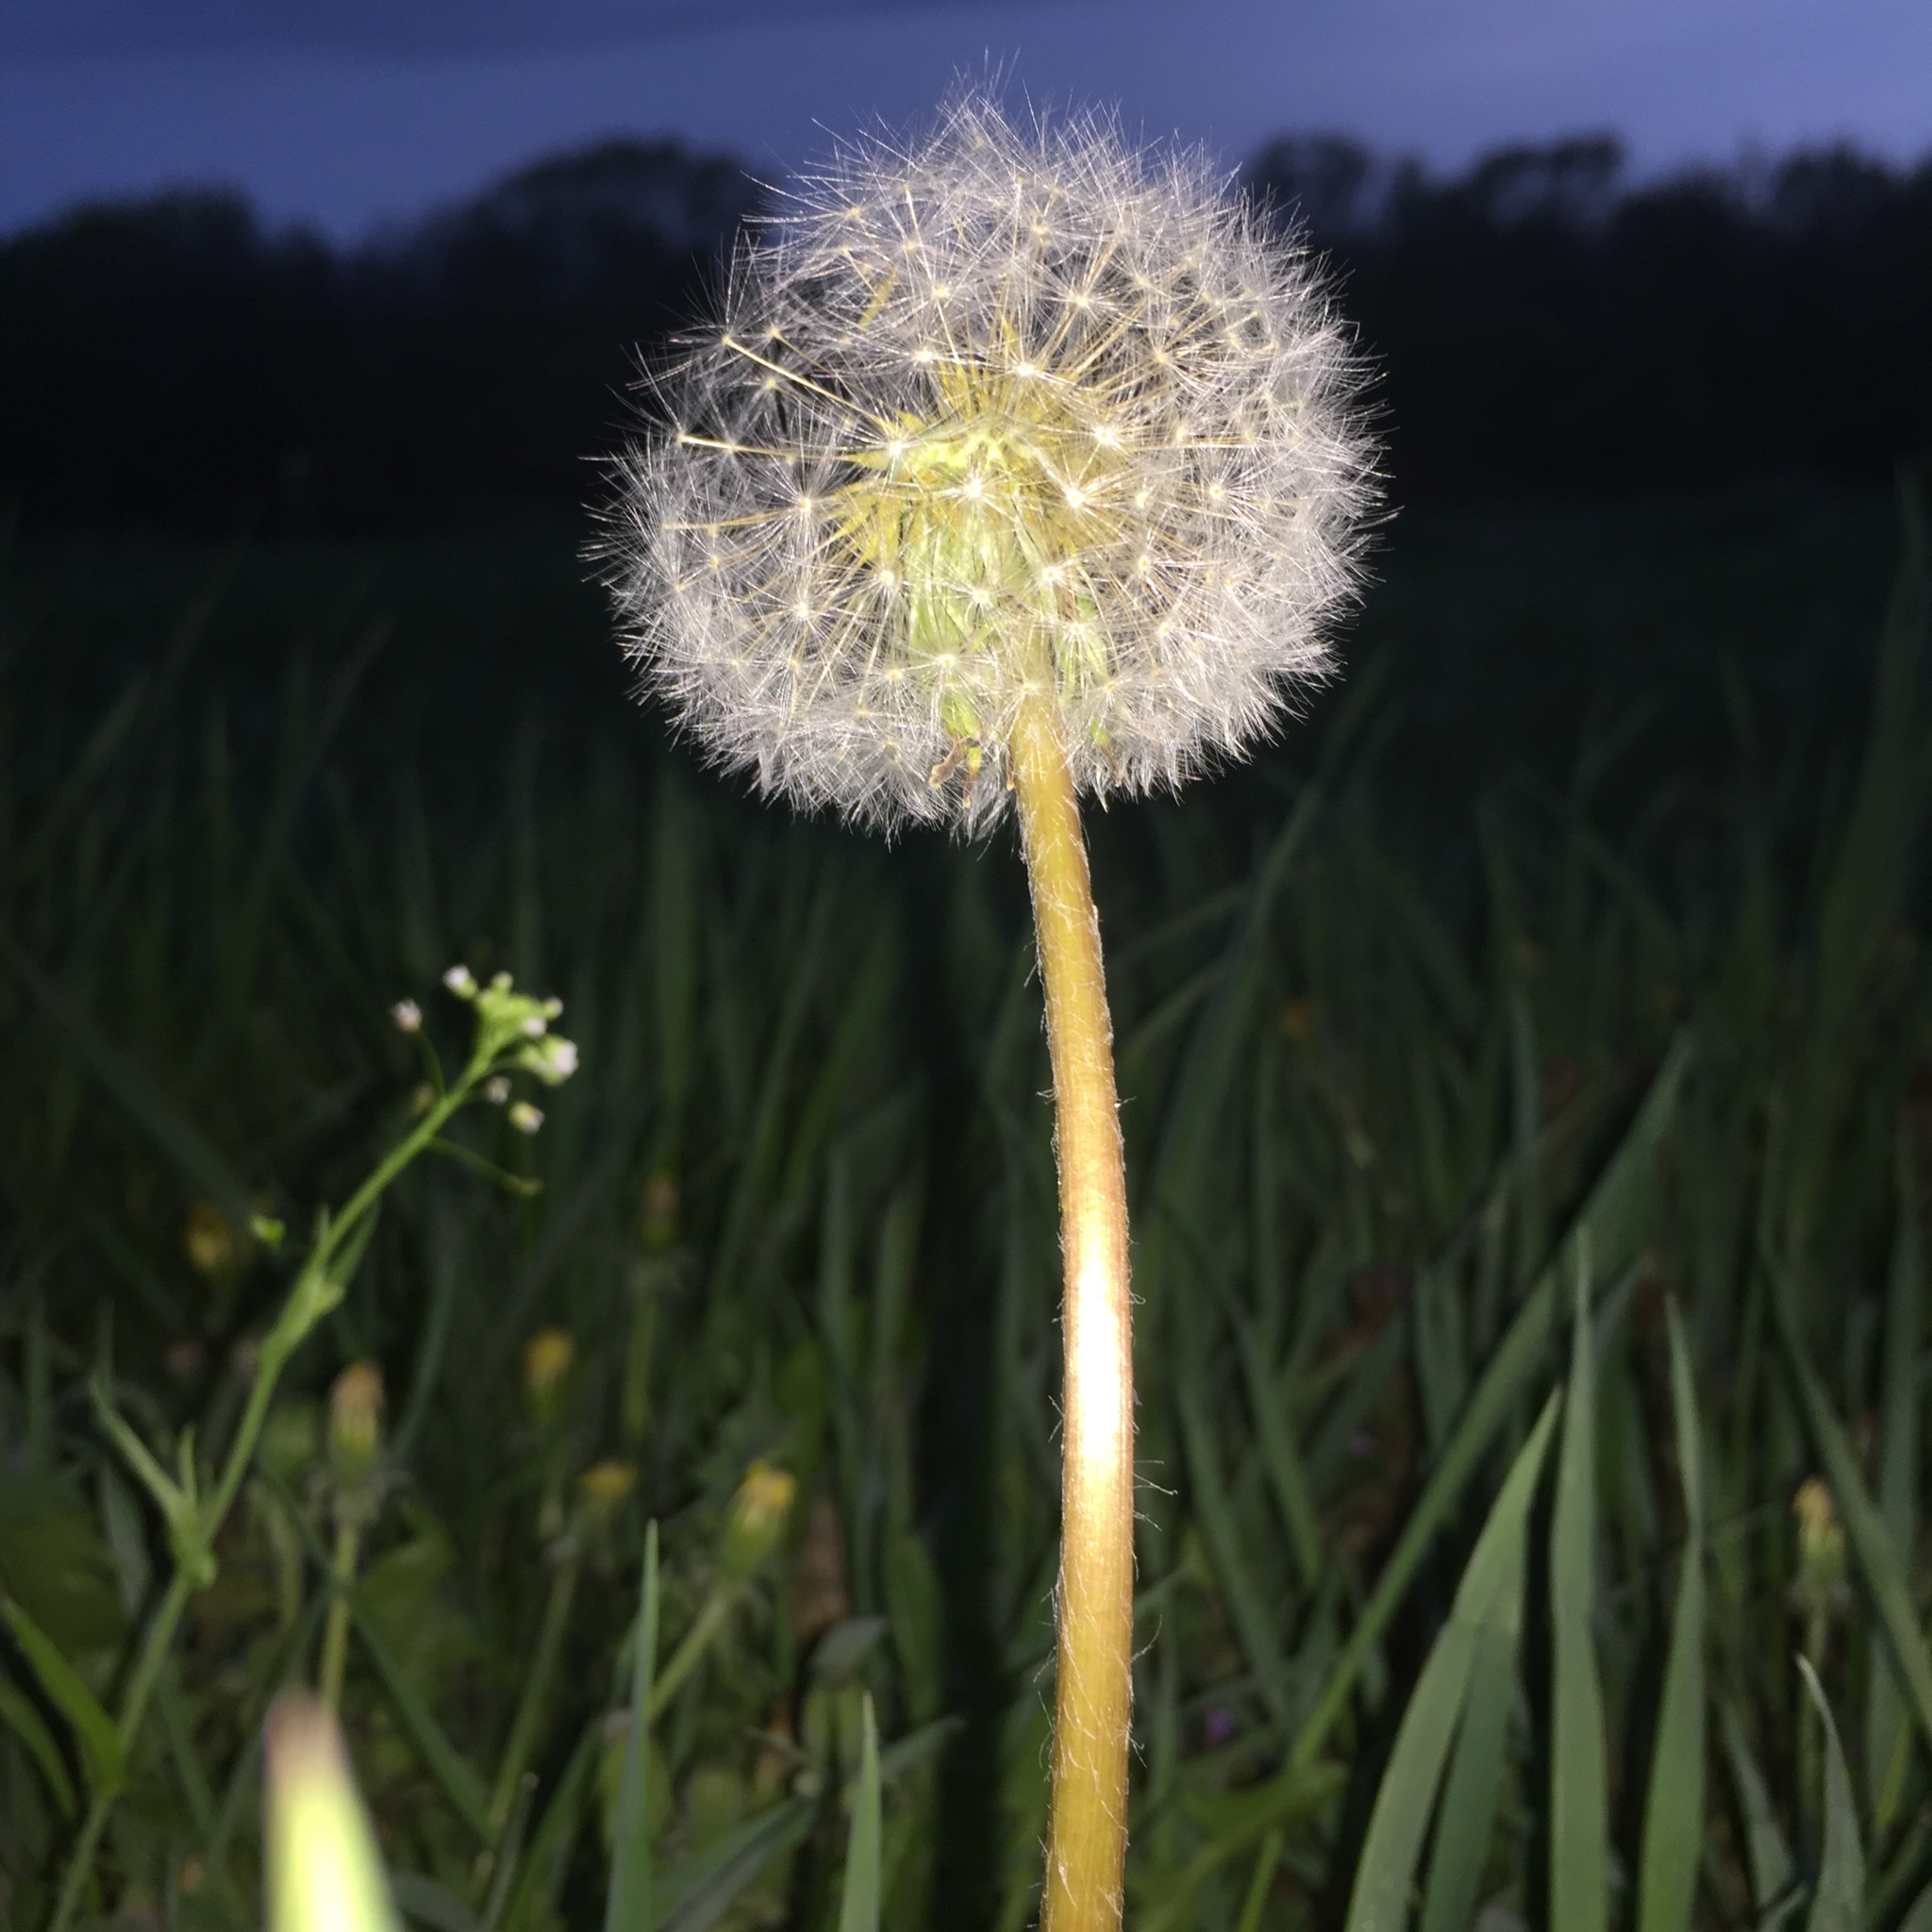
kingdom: Plantae
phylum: Tracheophyta
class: Magnoliopsida
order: Asterales
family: Asteraceae
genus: Taraxacum
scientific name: Taraxacum officinale
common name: Common dandelion
